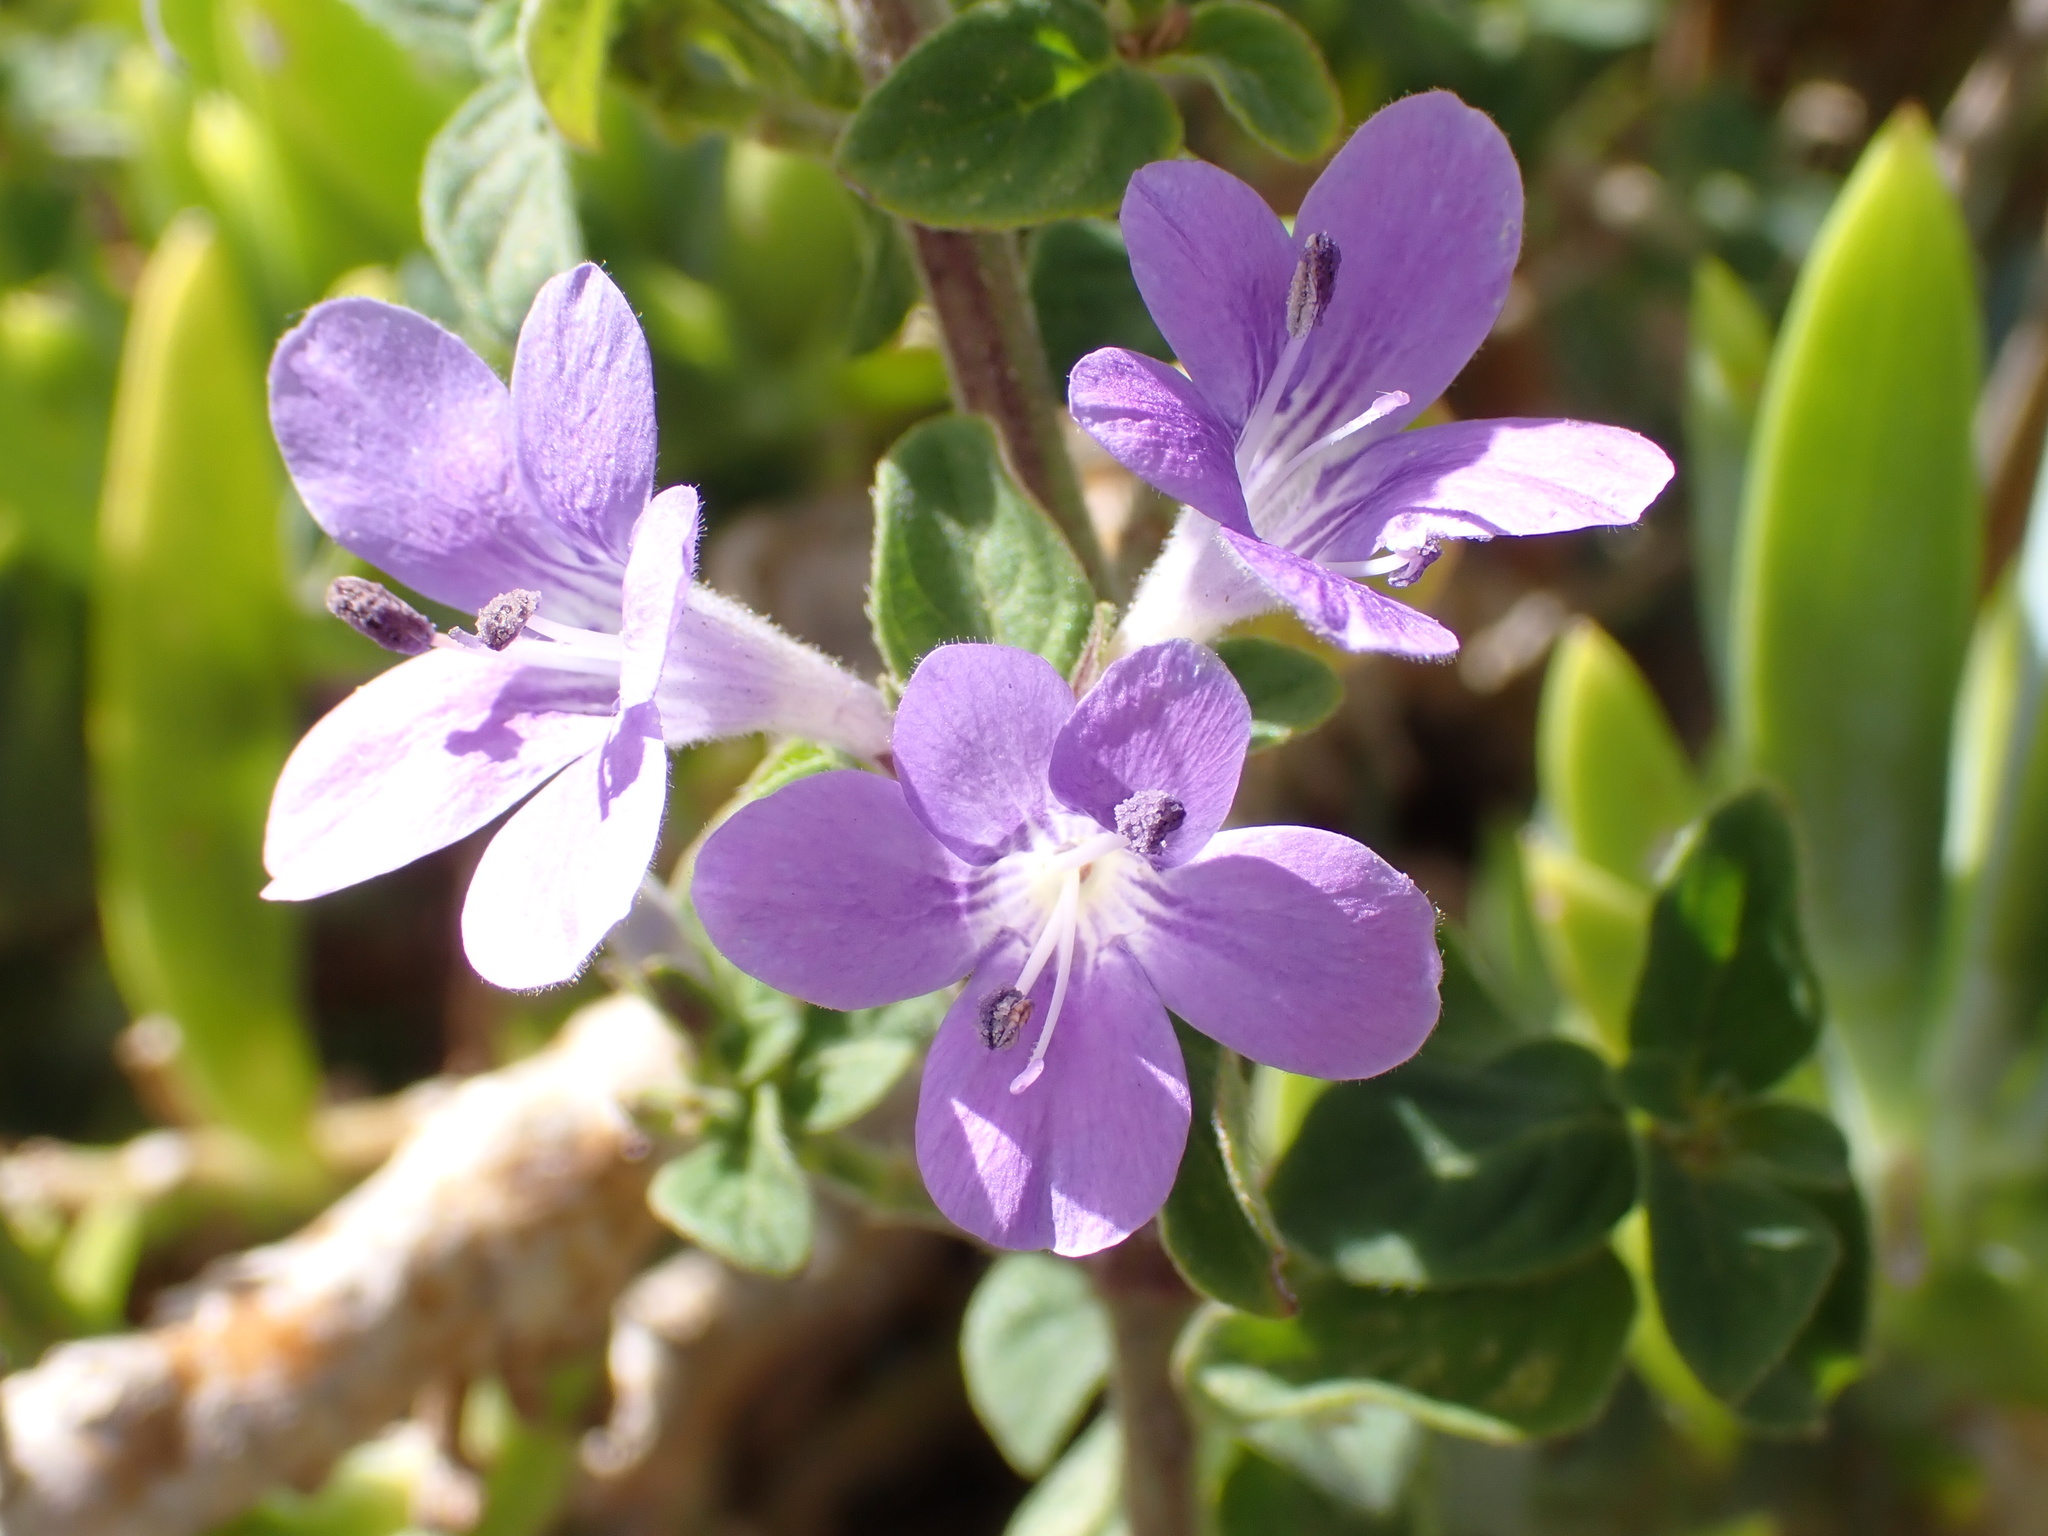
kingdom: Plantae
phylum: Tracheophyta
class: Magnoliopsida
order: Lamiales
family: Acanthaceae
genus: Barleria
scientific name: Barleria obtusa
